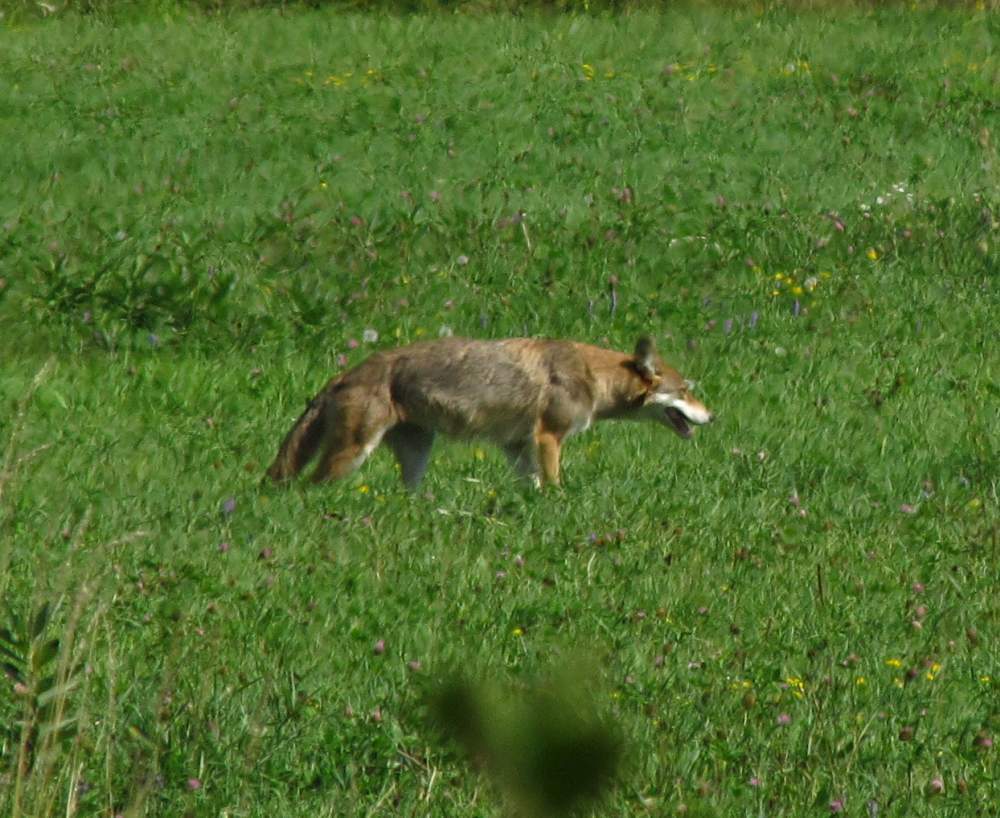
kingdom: Animalia
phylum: Chordata
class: Mammalia
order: Carnivora
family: Canidae
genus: Canis
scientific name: Canis latrans
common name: Coyote
